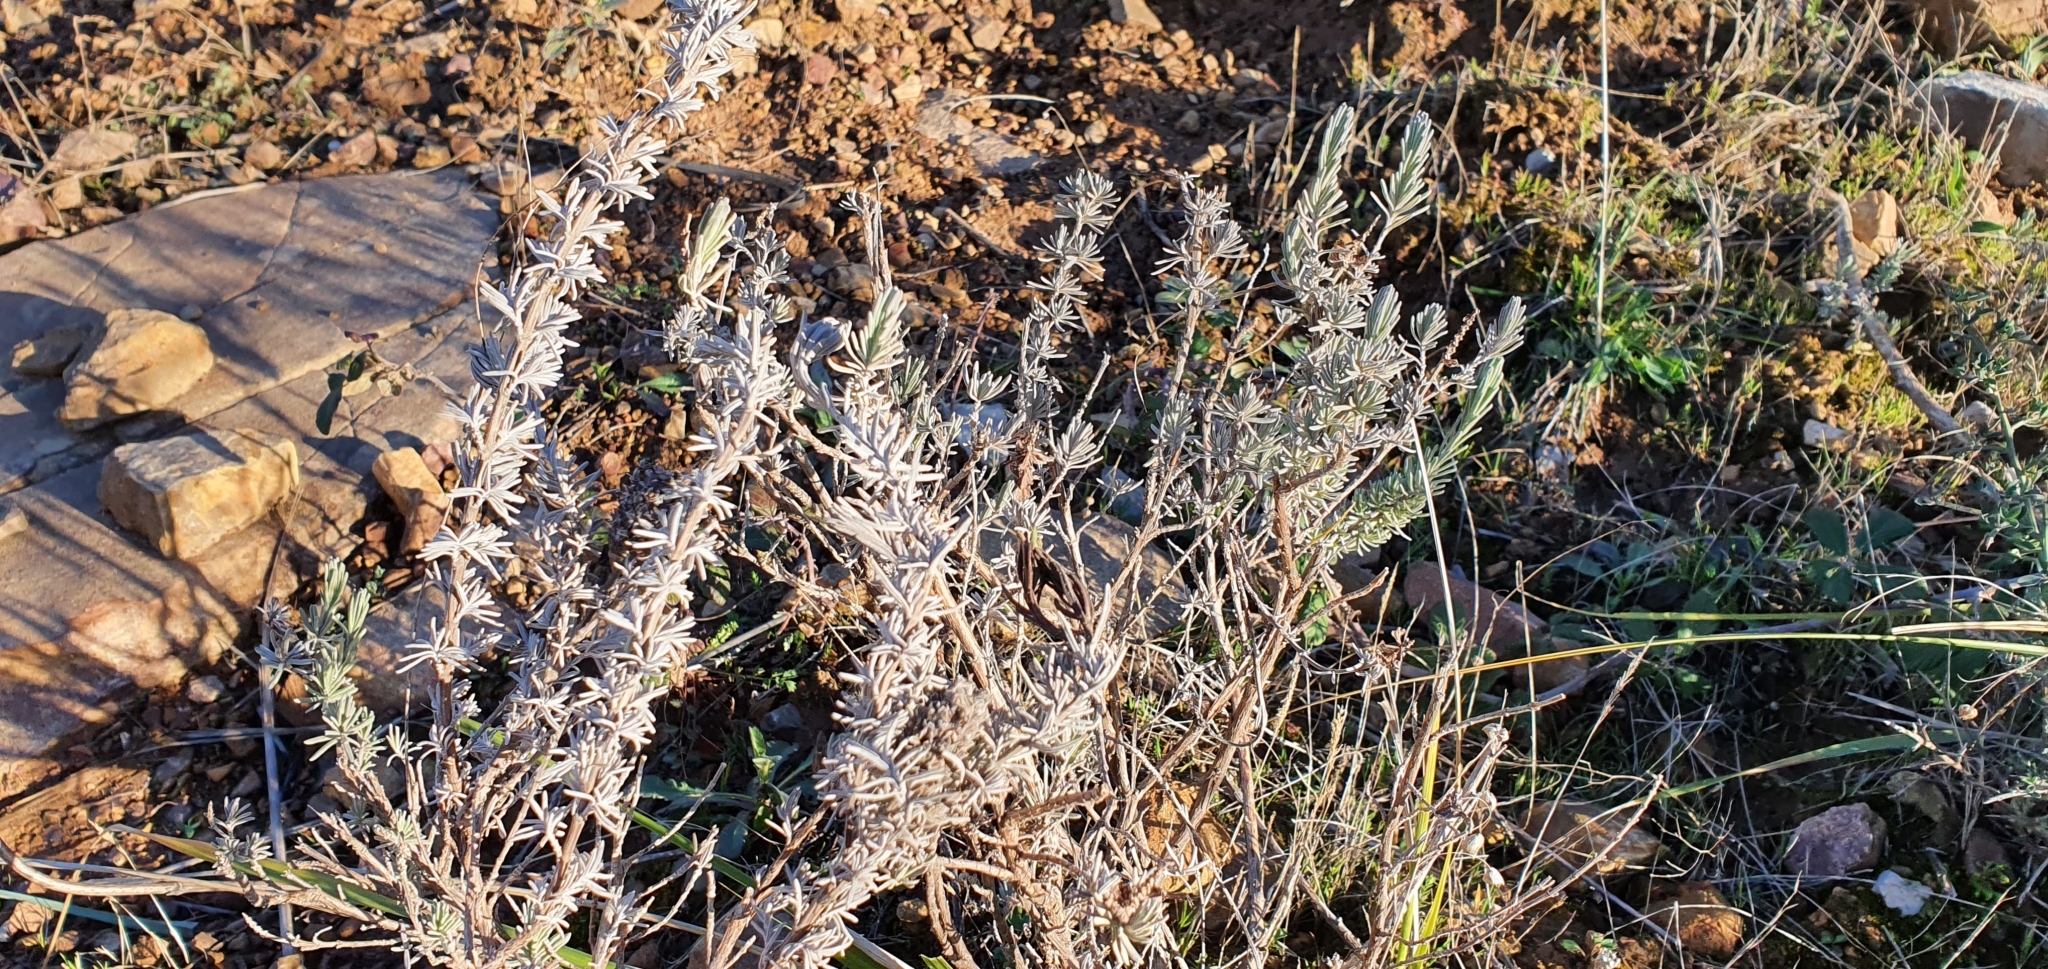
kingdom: Plantae
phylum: Tracheophyta
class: Magnoliopsida
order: Lamiales
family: Lamiaceae
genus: Lavandula
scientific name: Lavandula stoechas
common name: French lavender
